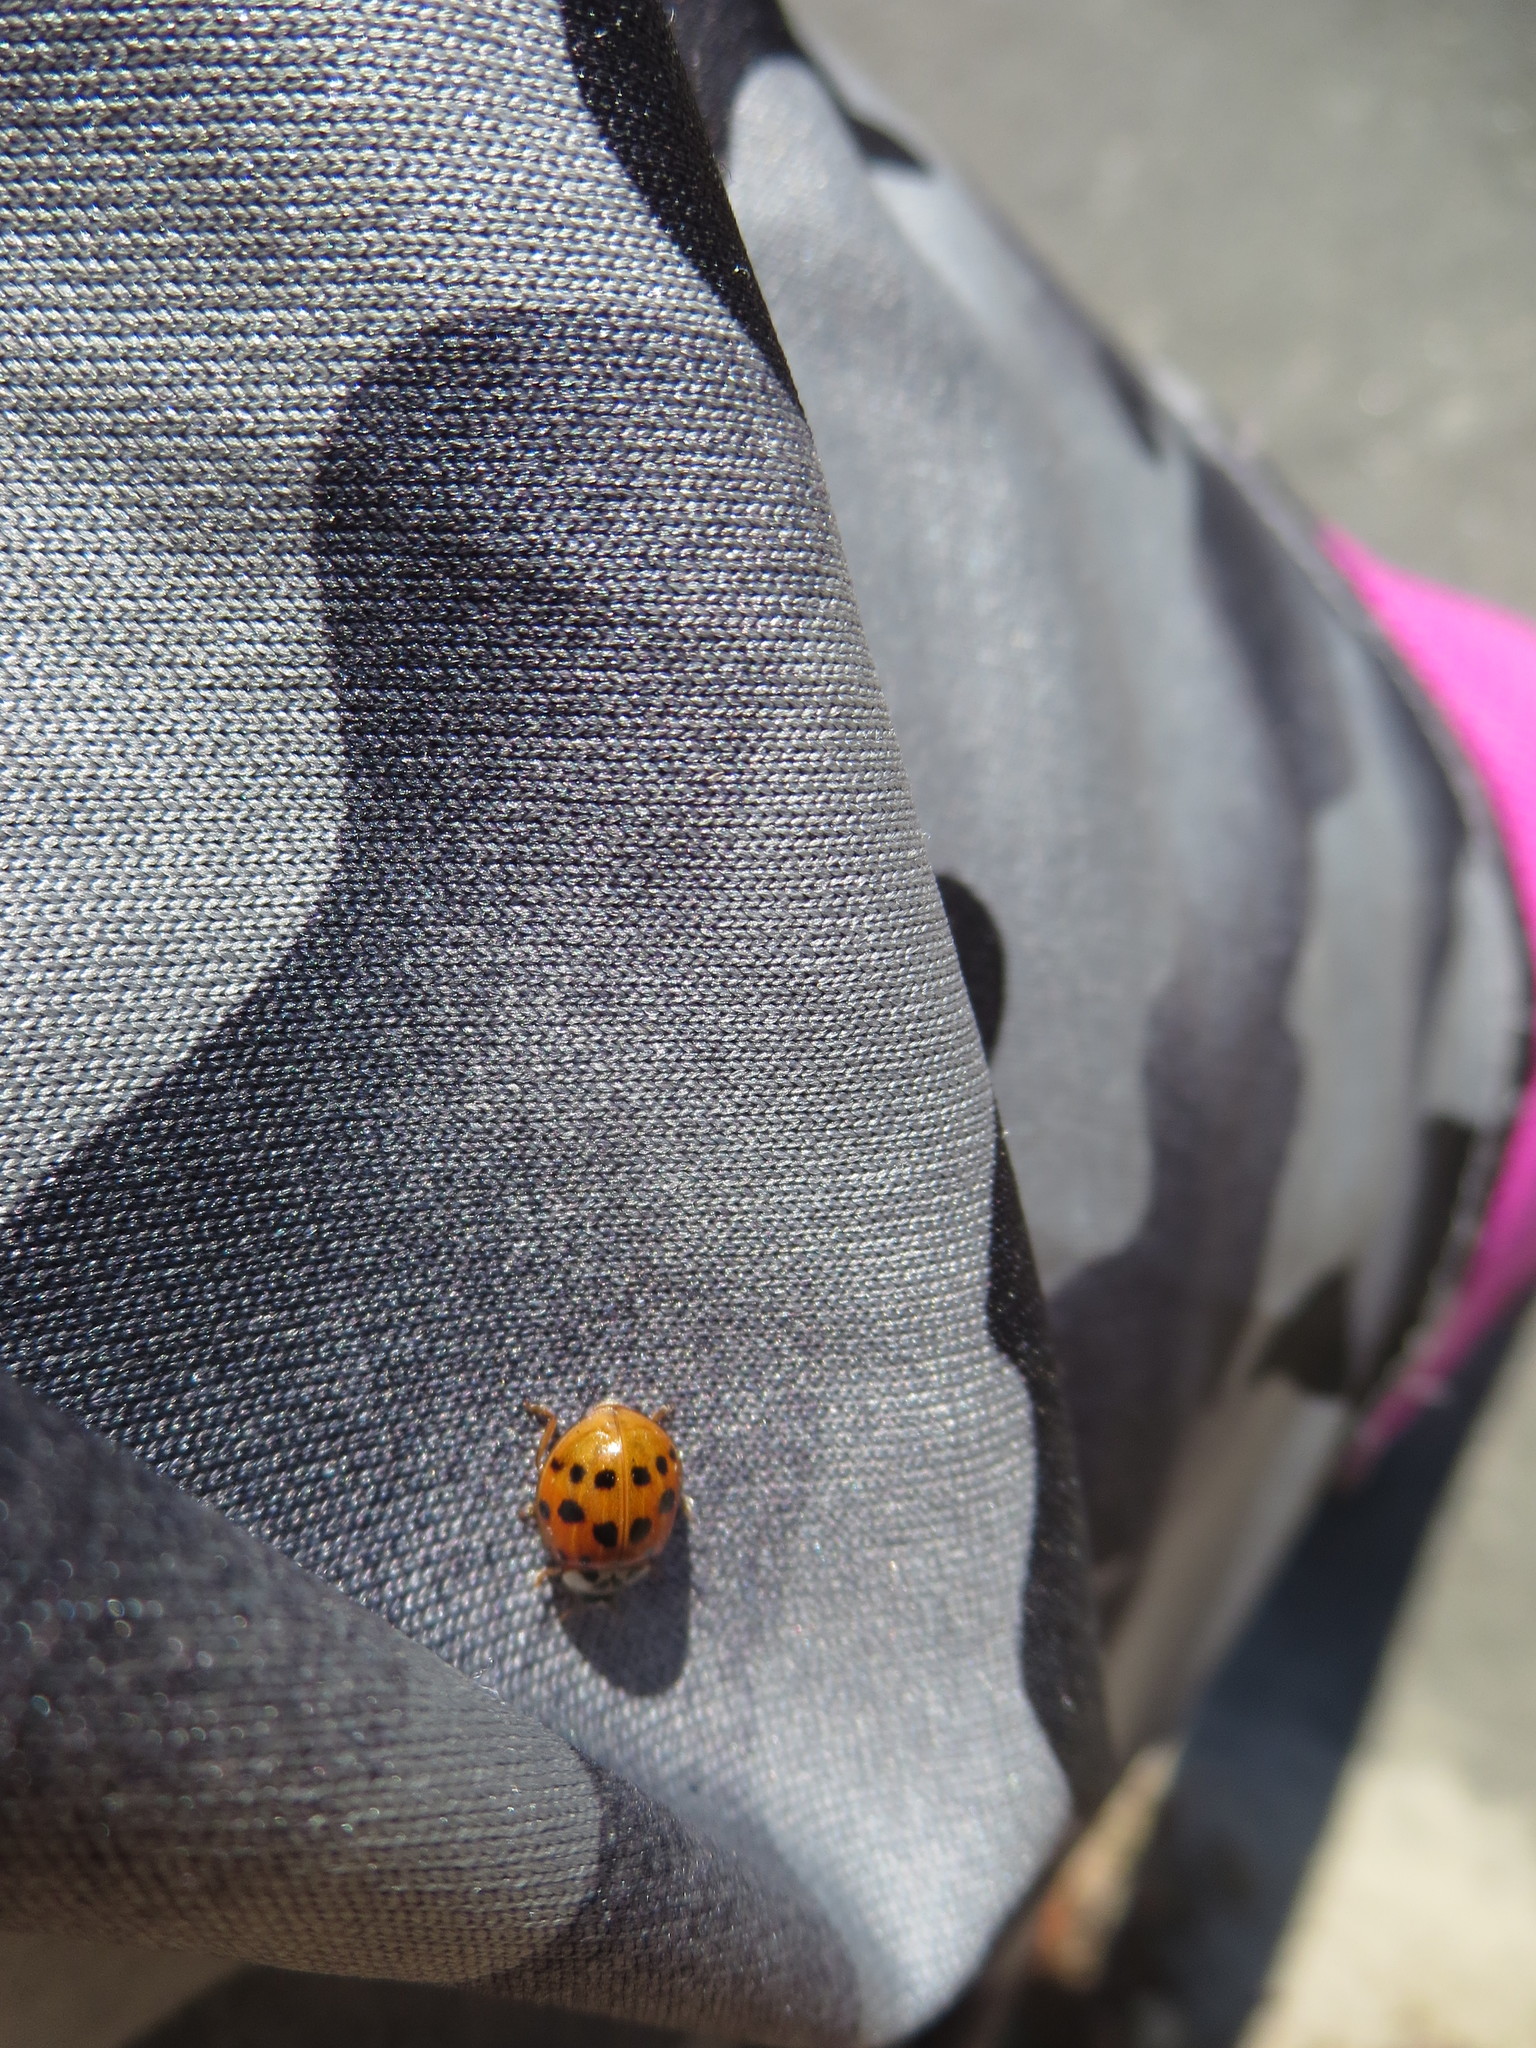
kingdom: Animalia
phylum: Arthropoda
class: Insecta
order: Coleoptera
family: Coccinellidae
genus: Harmonia
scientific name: Harmonia axyridis
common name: Harlequin ladybird
